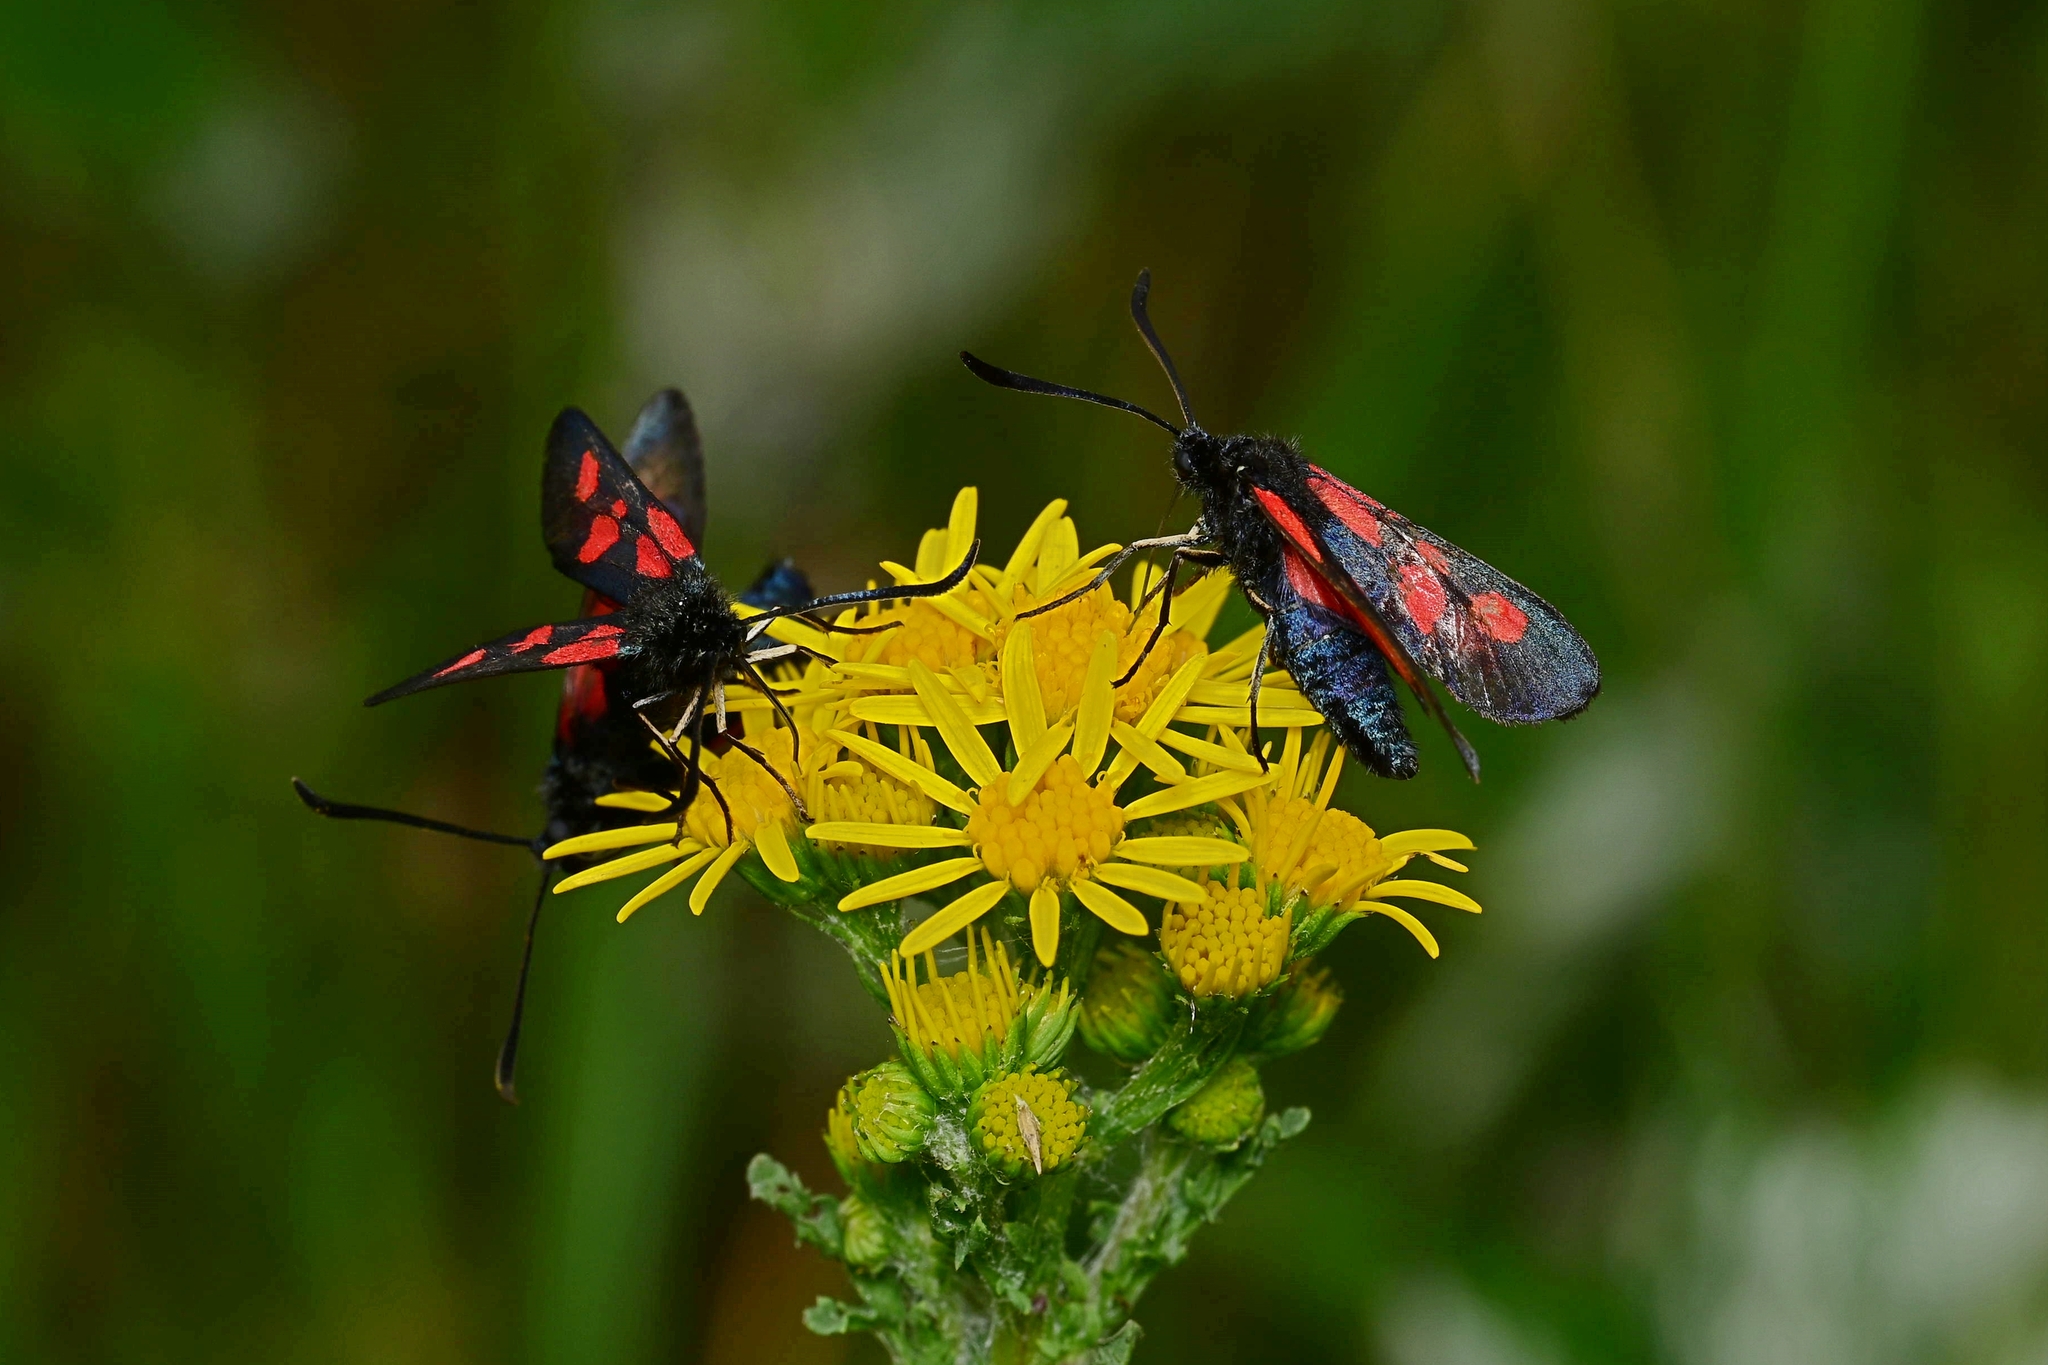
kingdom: Animalia
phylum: Arthropoda
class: Insecta
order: Lepidoptera
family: Zygaenidae
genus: Zygaena
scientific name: Zygaena viciae
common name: New forest burnet
